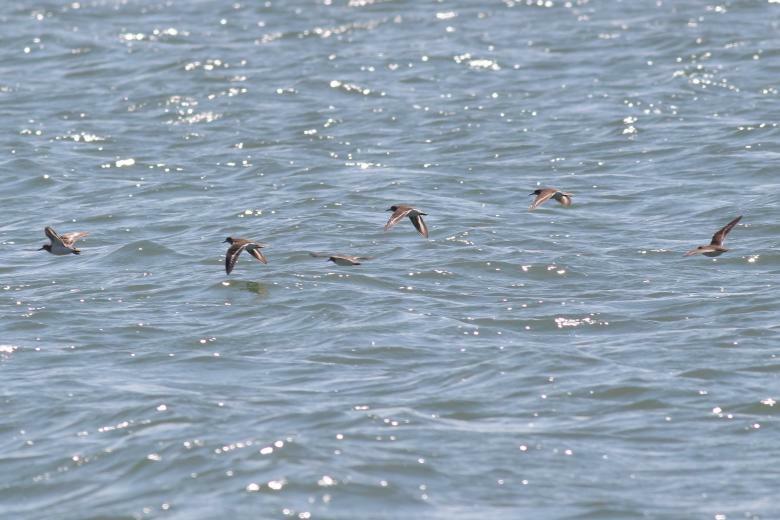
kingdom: Animalia
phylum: Chordata
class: Aves
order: Charadriiformes
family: Scolopacidae
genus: Actitis
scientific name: Actitis hypoleucos
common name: Common sandpiper
